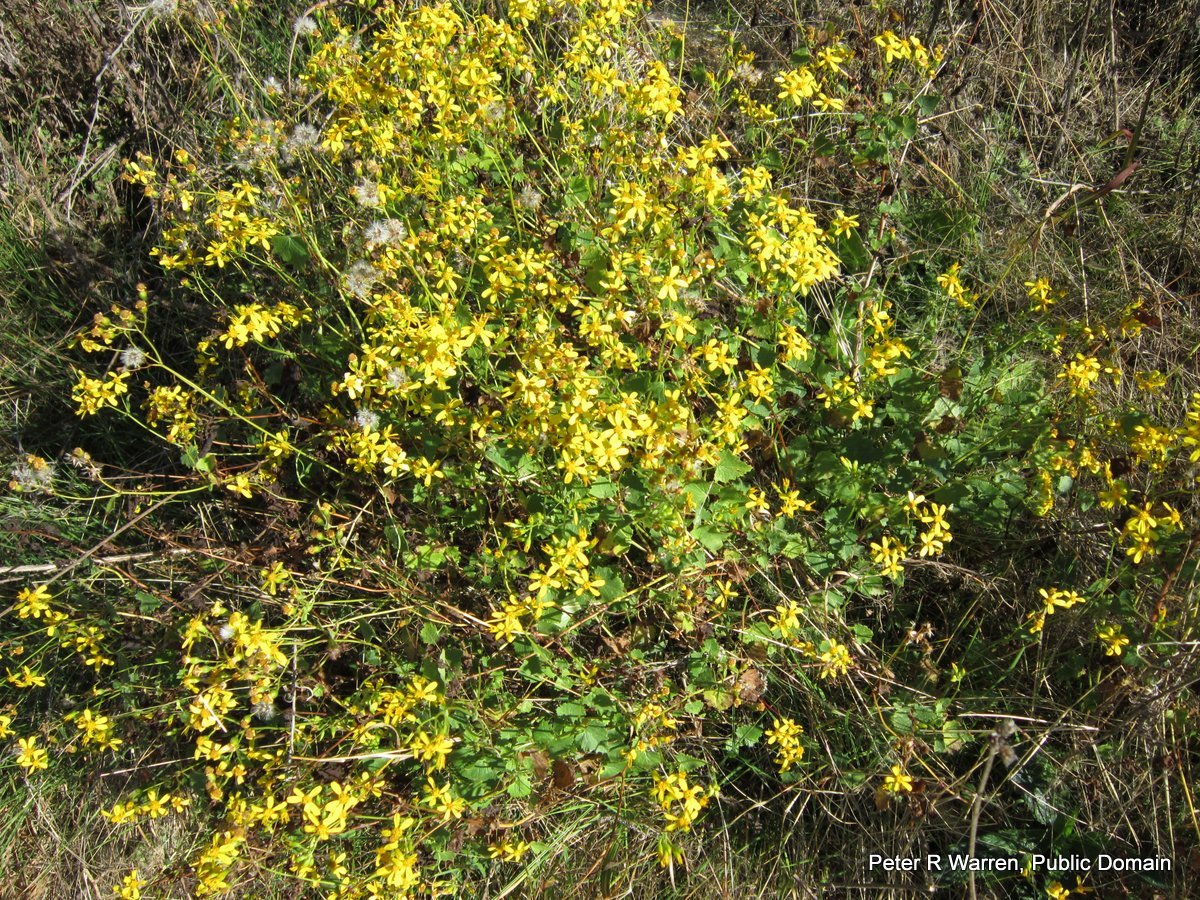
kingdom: Plantae
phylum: Tracheophyta
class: Magnoliopsida
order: Asterales
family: Asteraceae
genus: Senecio
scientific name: Senecio deltoideus
